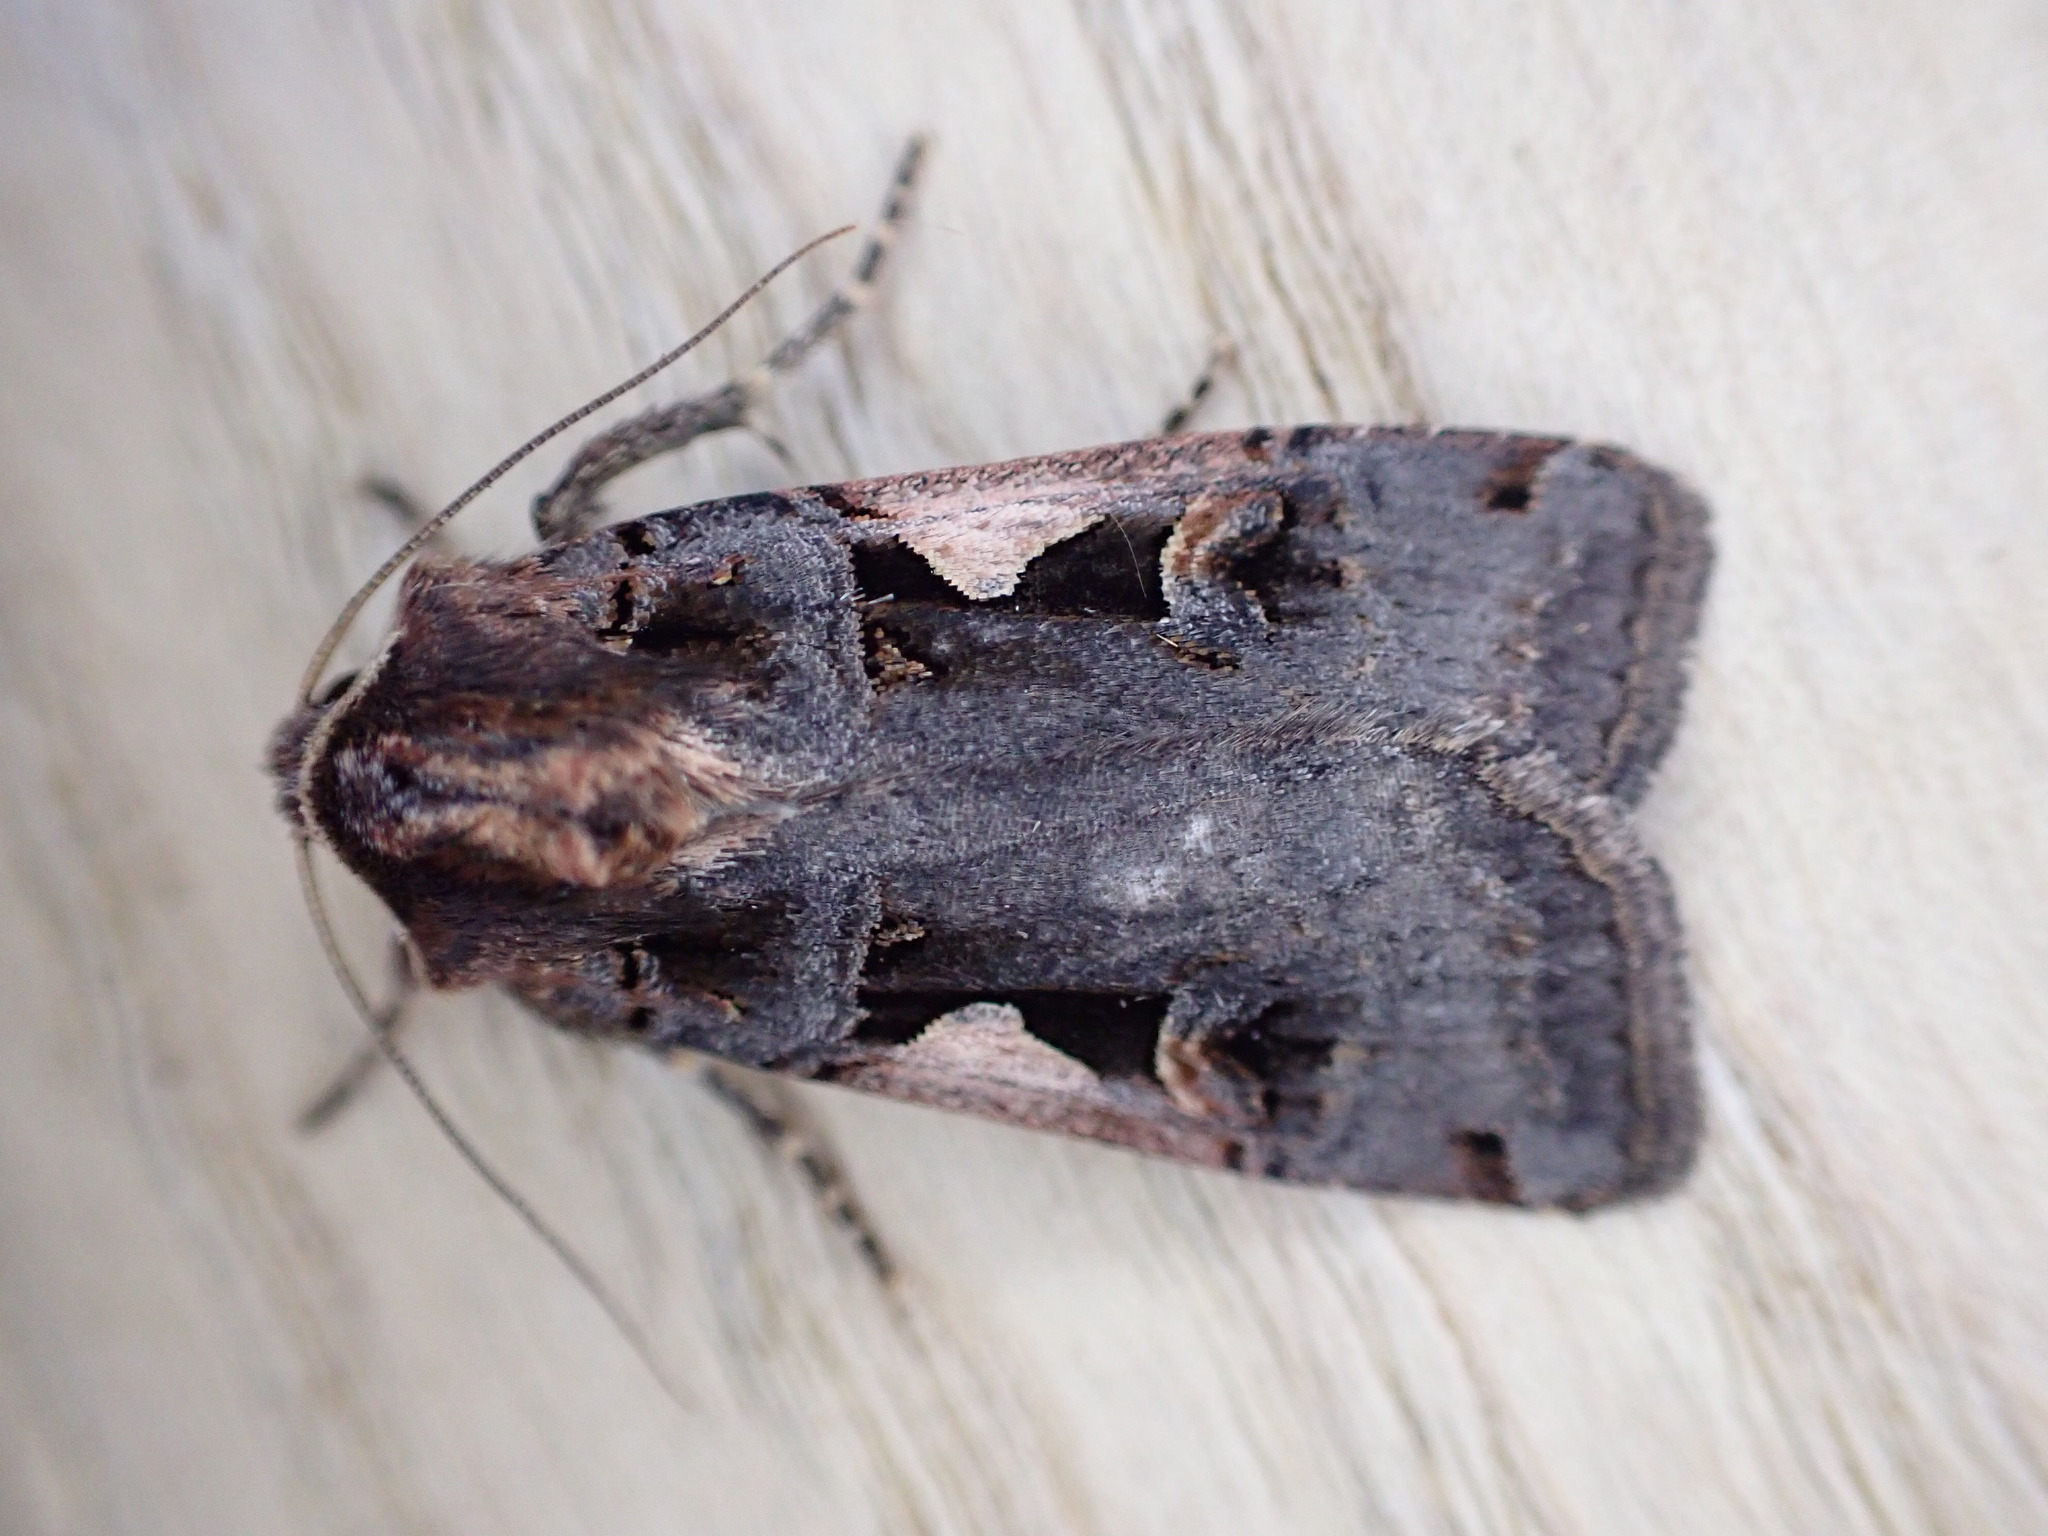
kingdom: Animalia
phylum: Arthropoda
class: Insecta
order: Lepidoptera
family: Noctuidae
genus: Xestia
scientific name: Xestia c-nigrum
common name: Setaceous hebrew character
